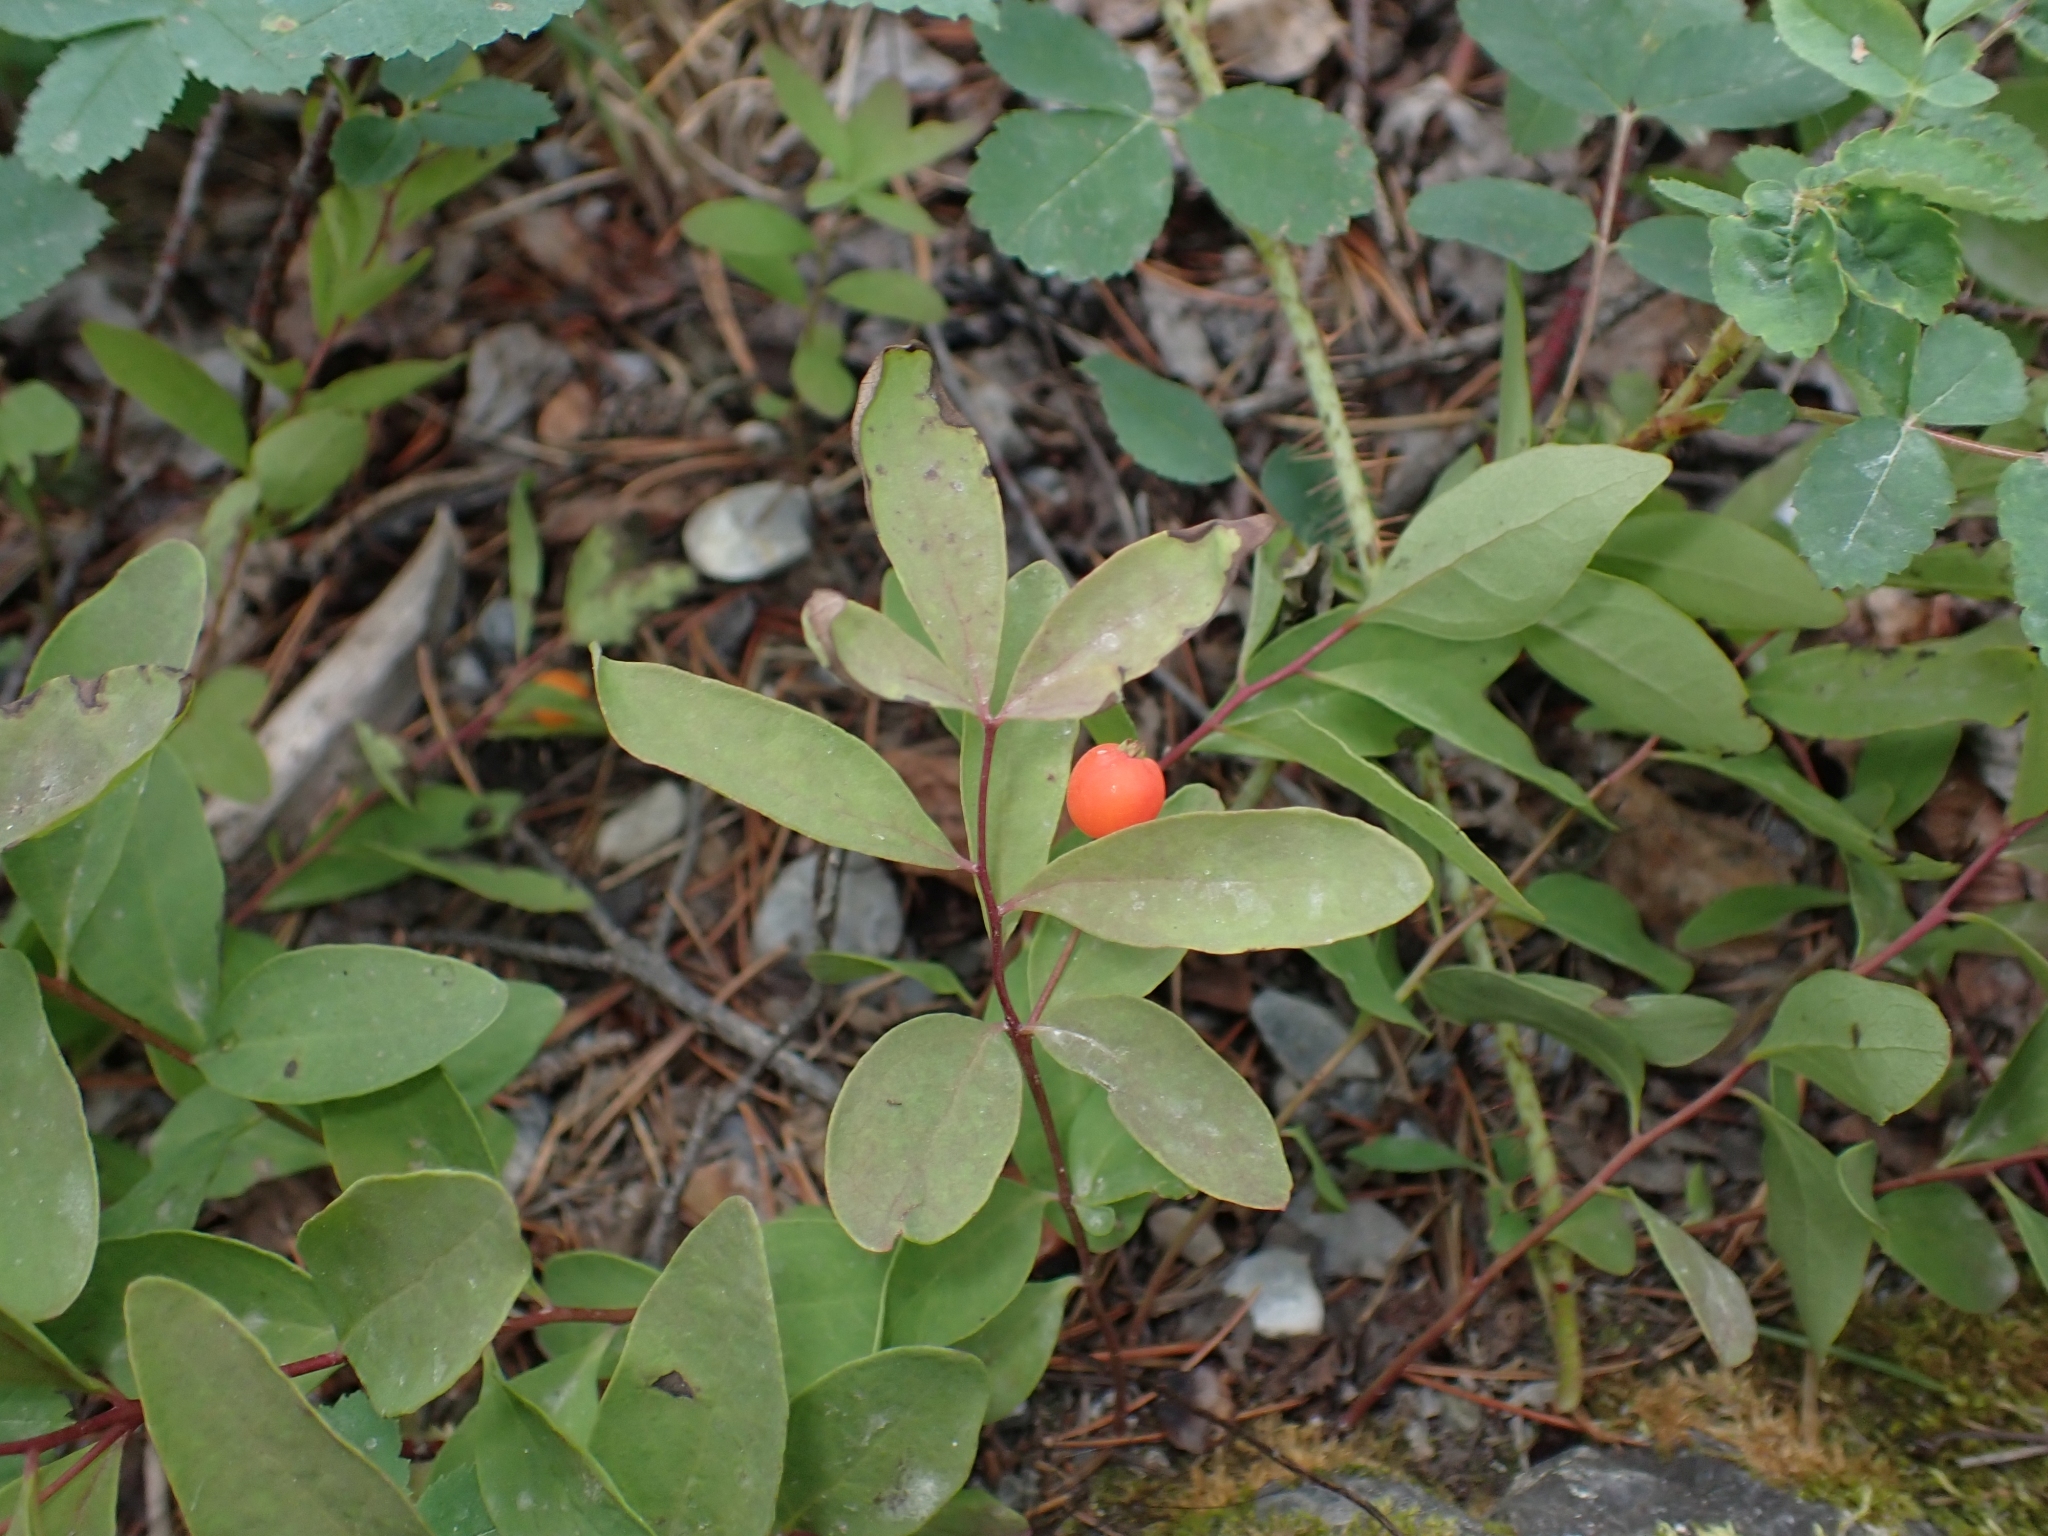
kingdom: Plantae
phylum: Tracheophyta
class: Magnoliopsida
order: Santalales
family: Comandraceae
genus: Geocaulon
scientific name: Geocaulon lividum
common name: Earthberry
